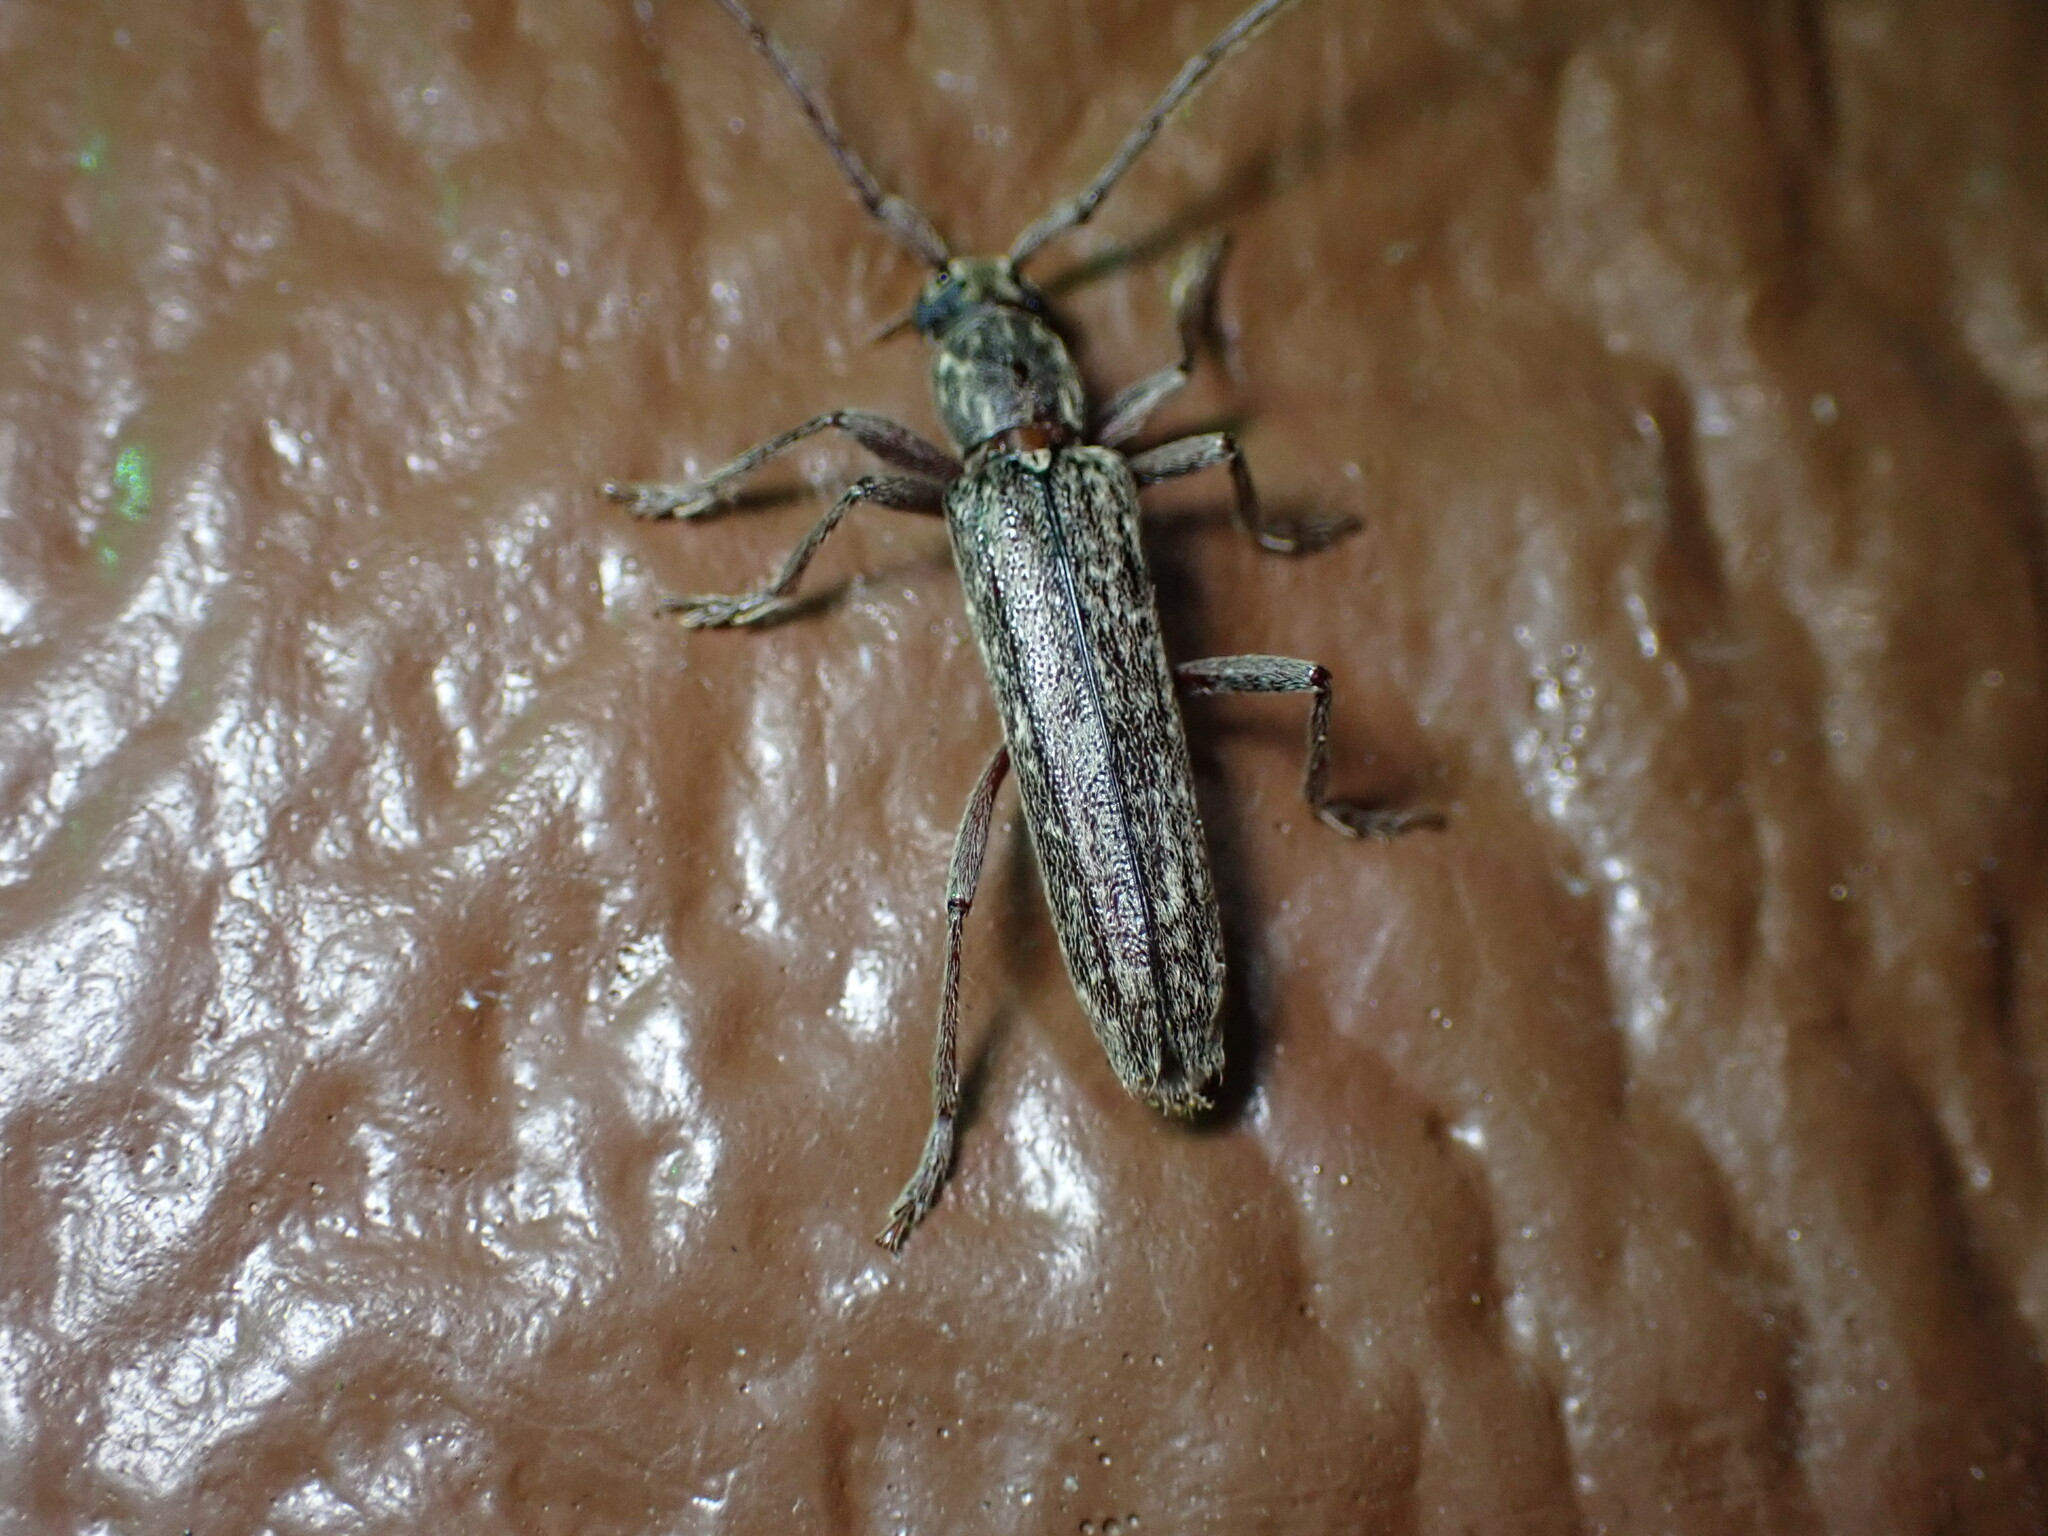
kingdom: Animalia
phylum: Arthropoda
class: Insecta
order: Coleoptera
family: Cerambycidae
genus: Anelaphus
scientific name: Anelaphus villosus
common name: Twig pruner
